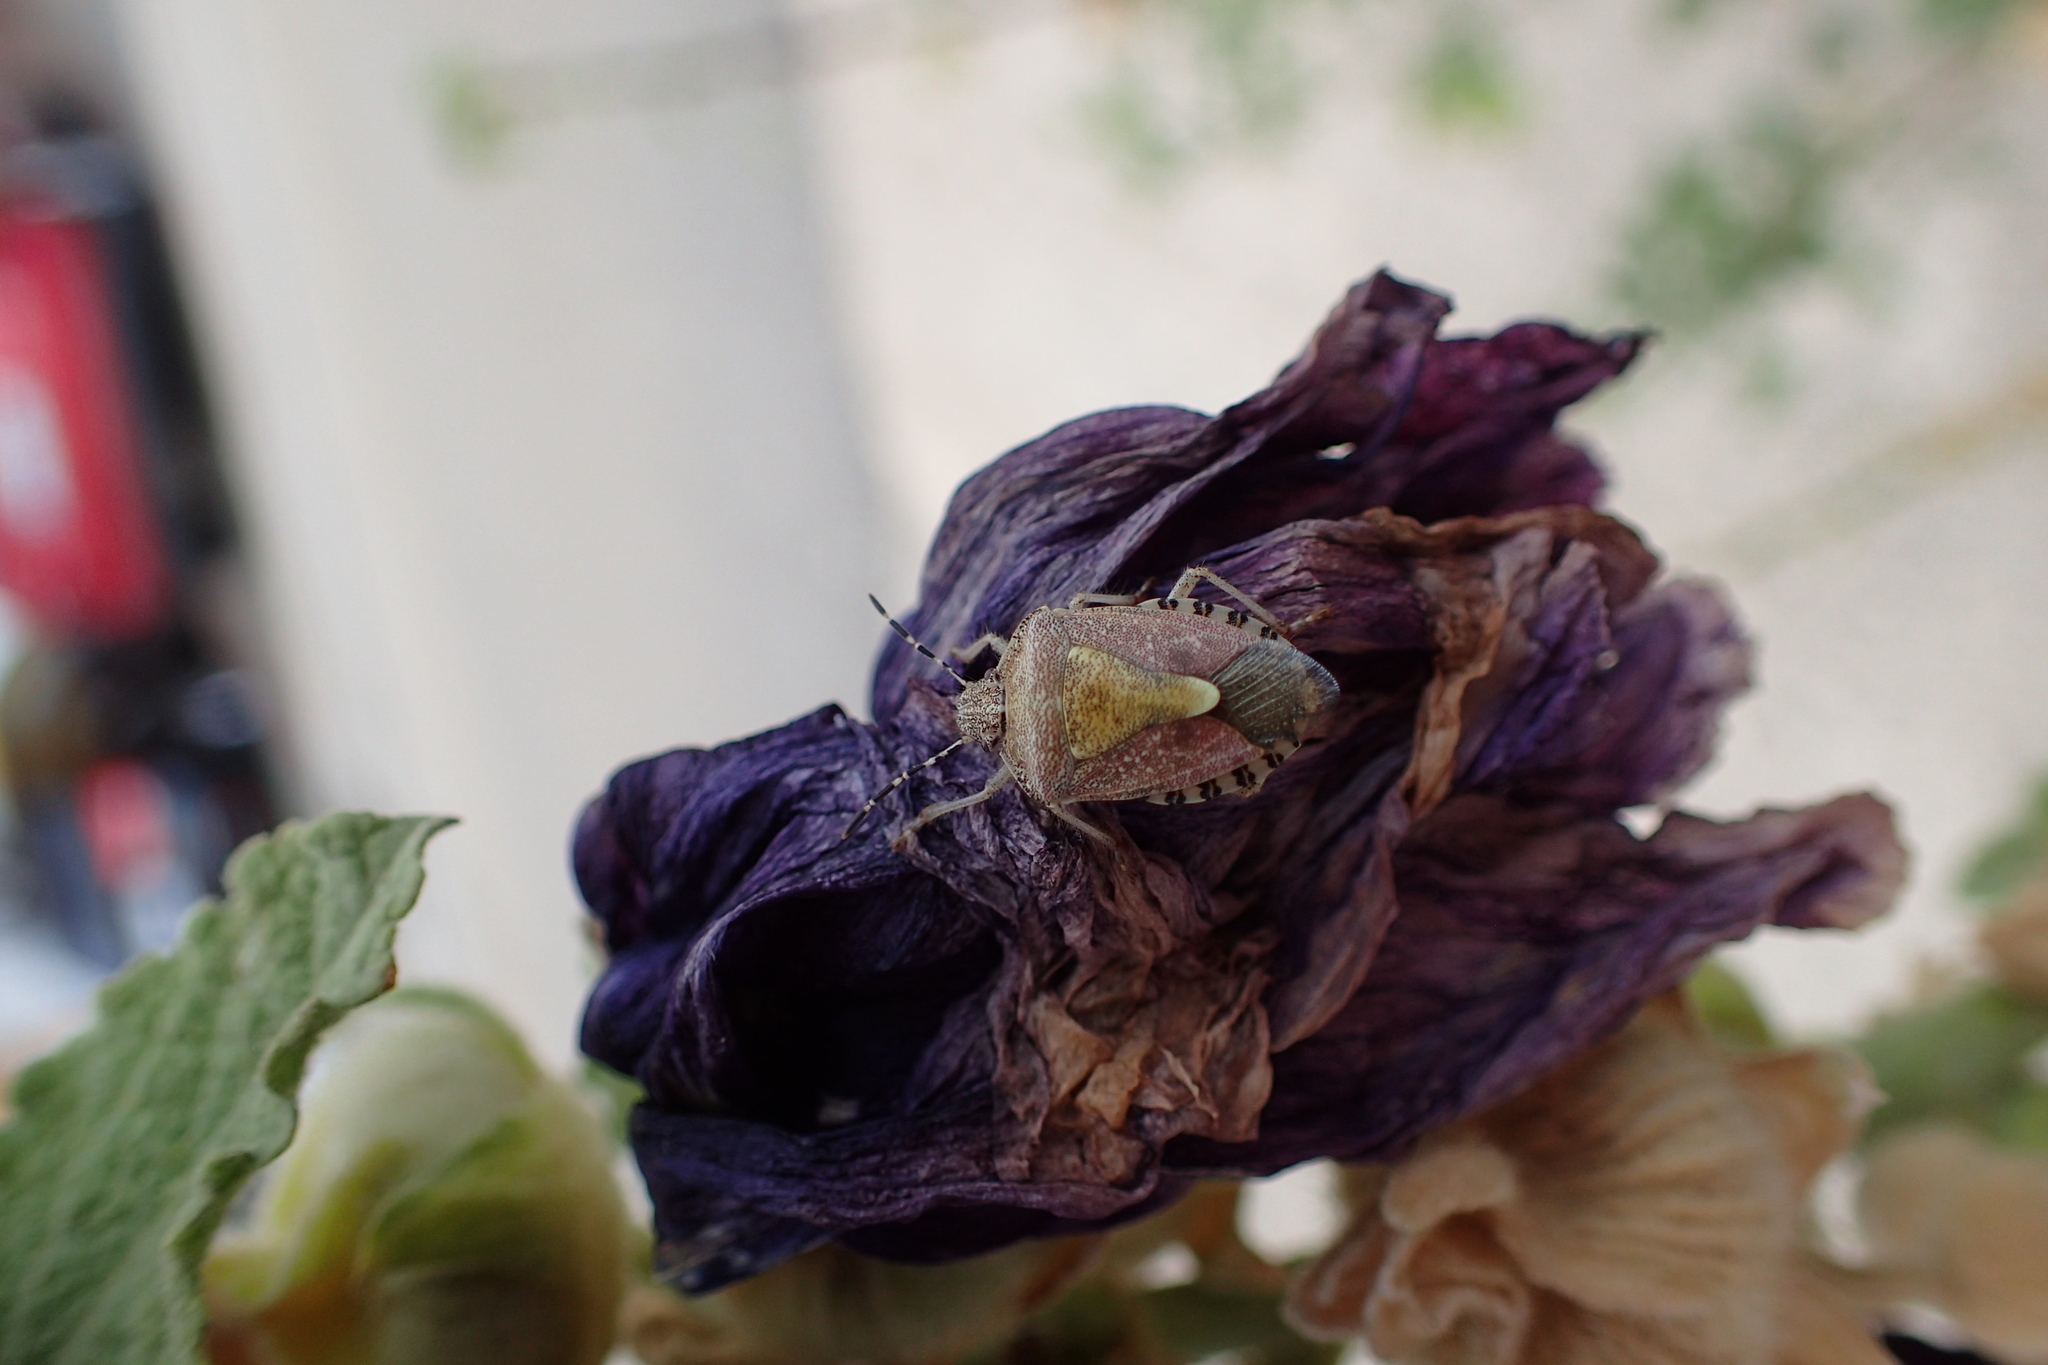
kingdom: Animalia
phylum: Arthropoda
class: Insecta
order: Hemiptera
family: Pentatomidae
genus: Dolycoris
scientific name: Dolycoris baccarum
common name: Sloe bug
